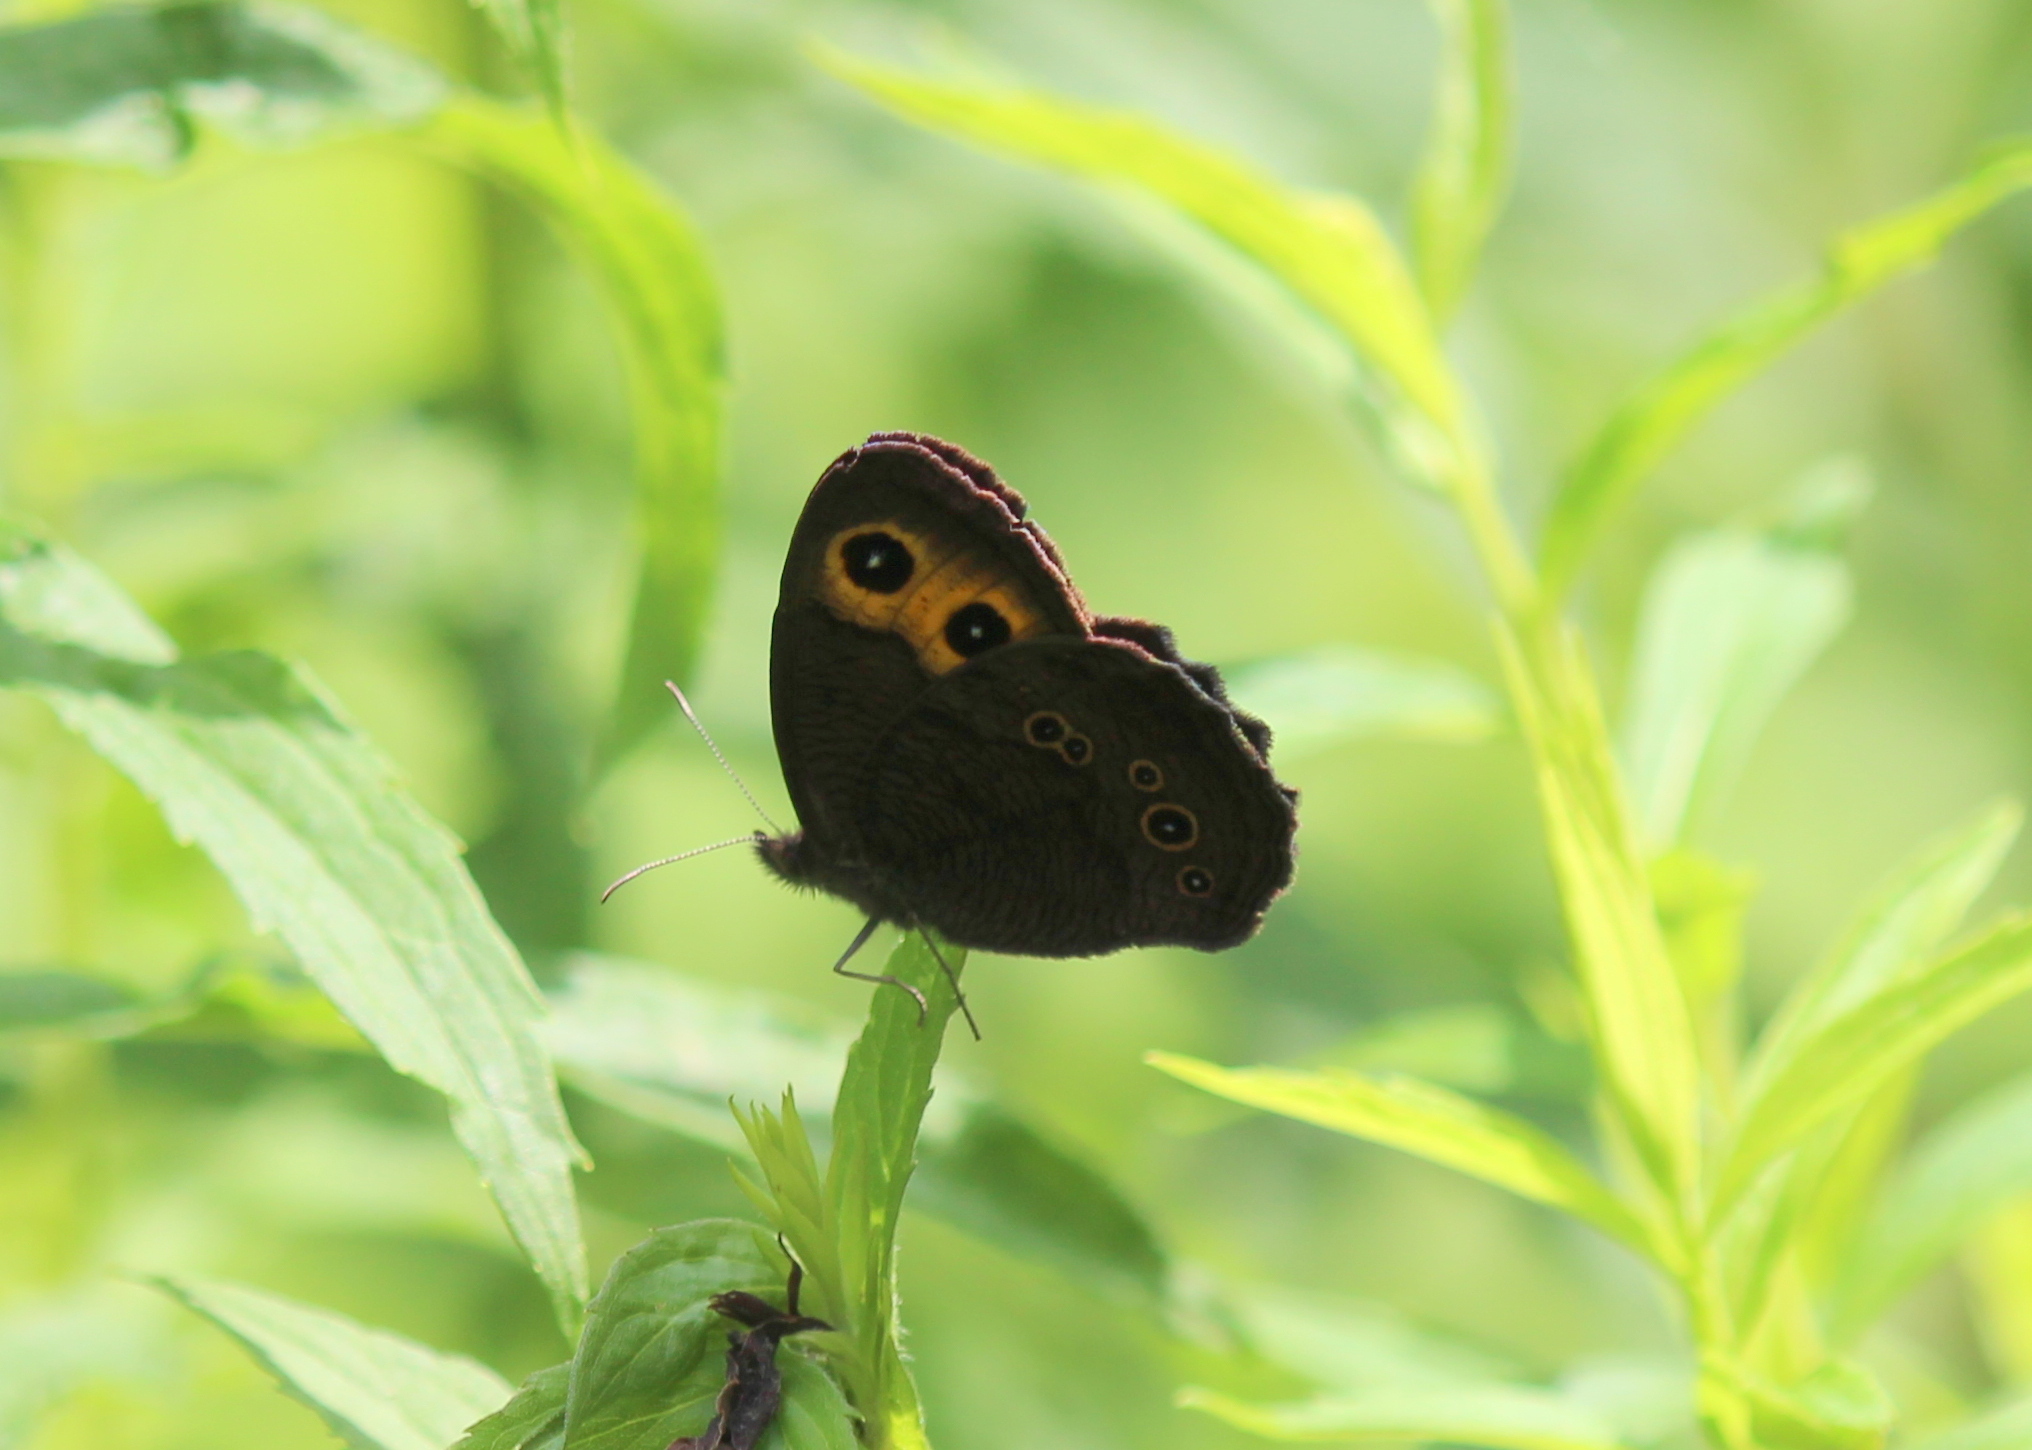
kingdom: Animalia
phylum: Arthropoda
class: Insecta
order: Lepidoptera
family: Nymphalidae
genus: Cercyonis
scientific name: Cercyonis pegala
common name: Common wood-nymph
